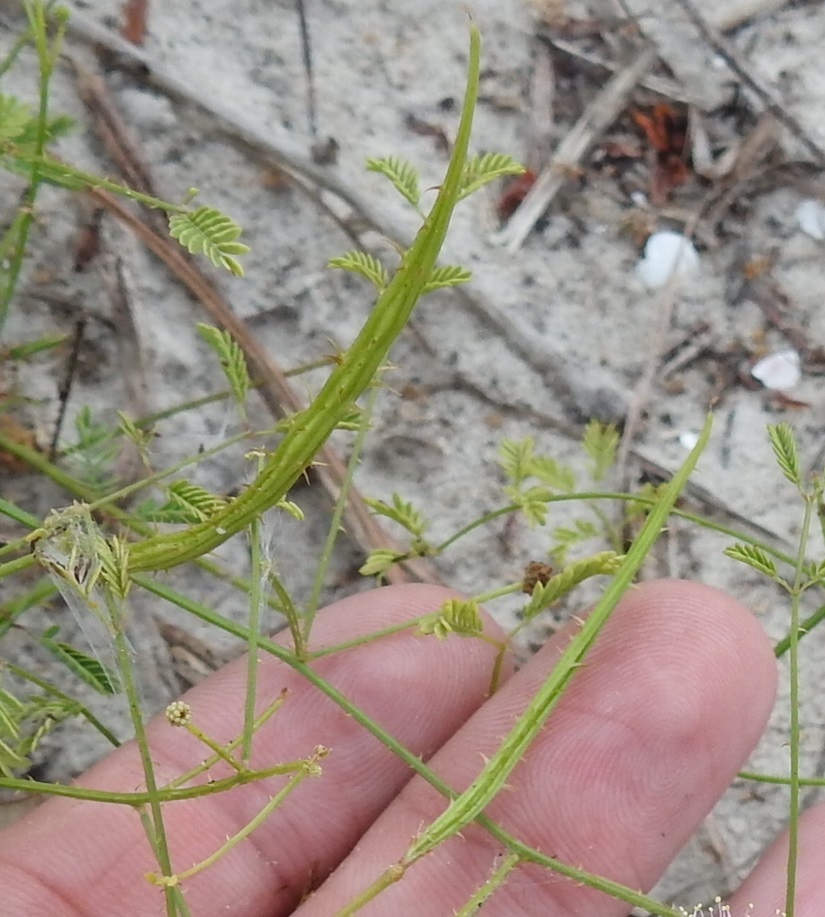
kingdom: Plantae
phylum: Tracheophyta
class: Magnoliopsida
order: Fabales
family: Fabaceae
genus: Mimosa
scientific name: Mimosa latidens
